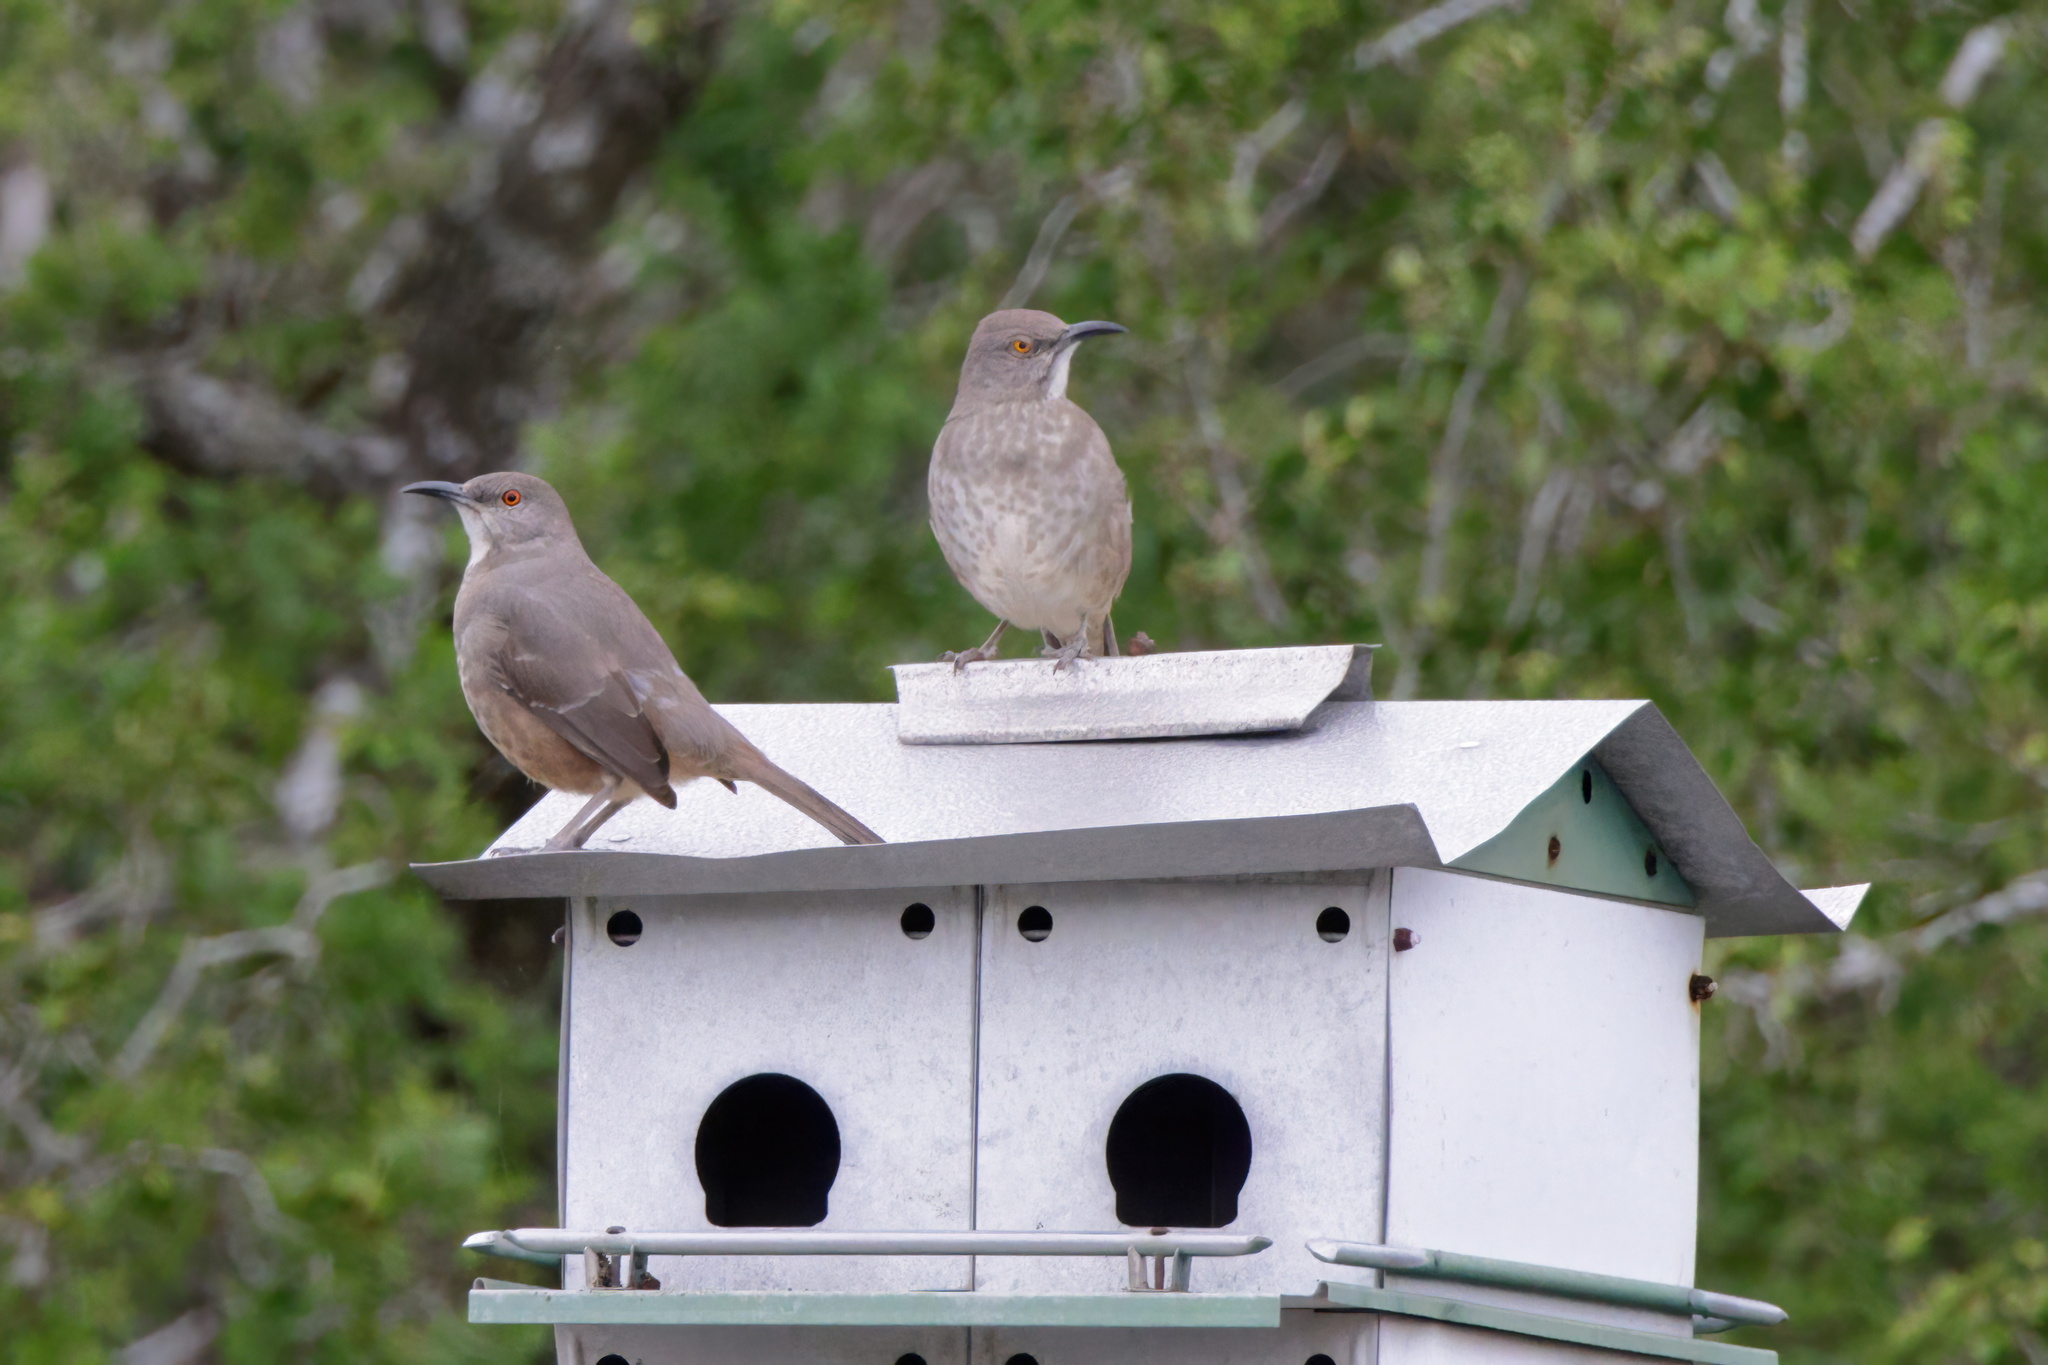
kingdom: Animalia
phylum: Chordata
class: Aves
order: Passeriformes
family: Mimidae
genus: Toxostoma
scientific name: Toxostoma curvirostre
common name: Curve-billed thrasher
